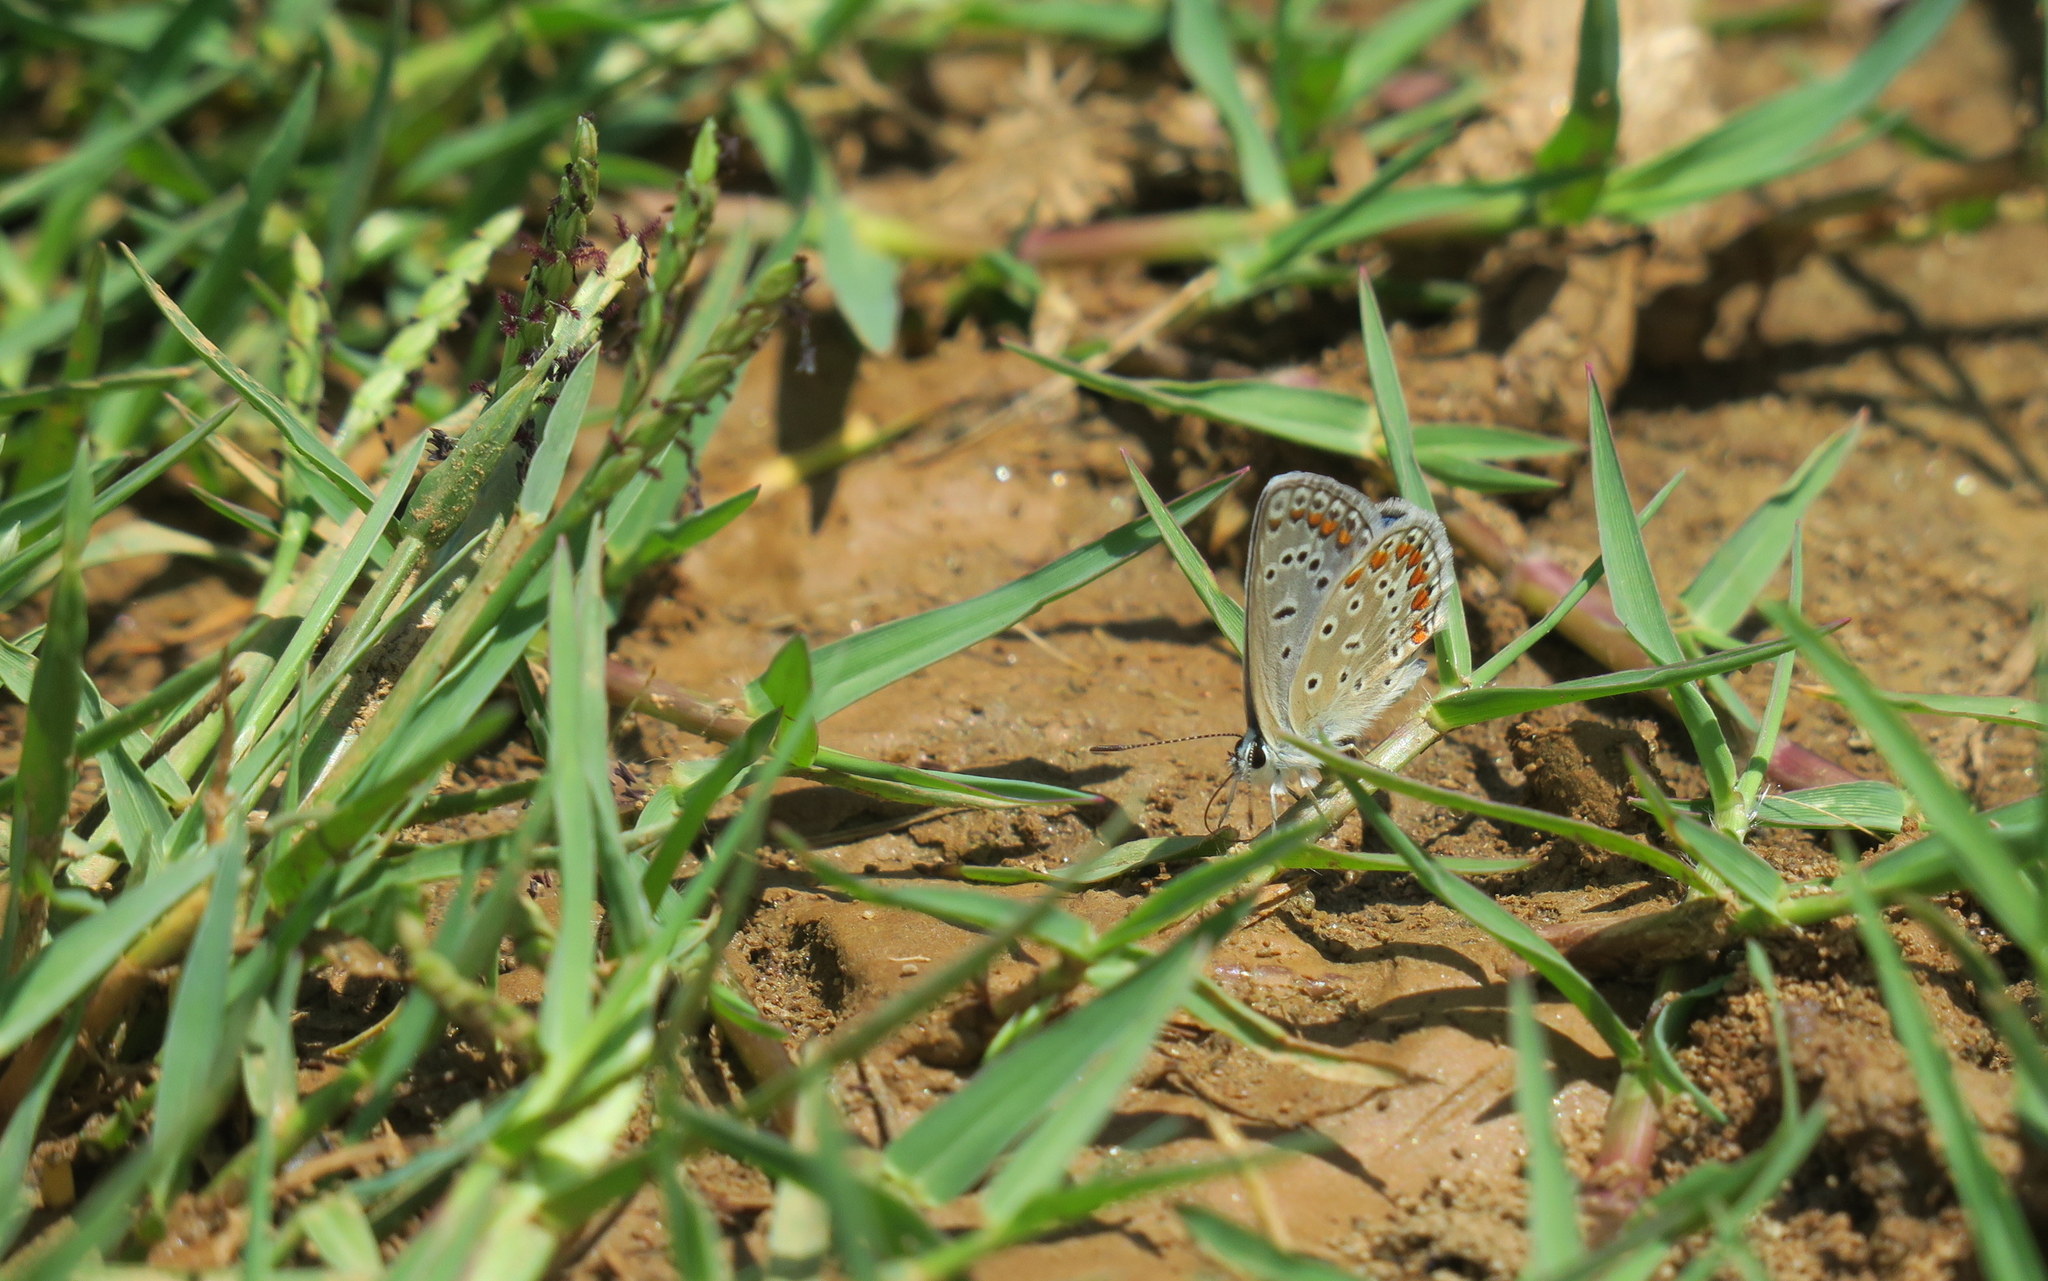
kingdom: Animalia
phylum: Arthropoda
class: Insecta
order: Lepidoptera
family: Lycaenidae
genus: Polyommatus
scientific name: Polyommatus icarus
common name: Common blue
